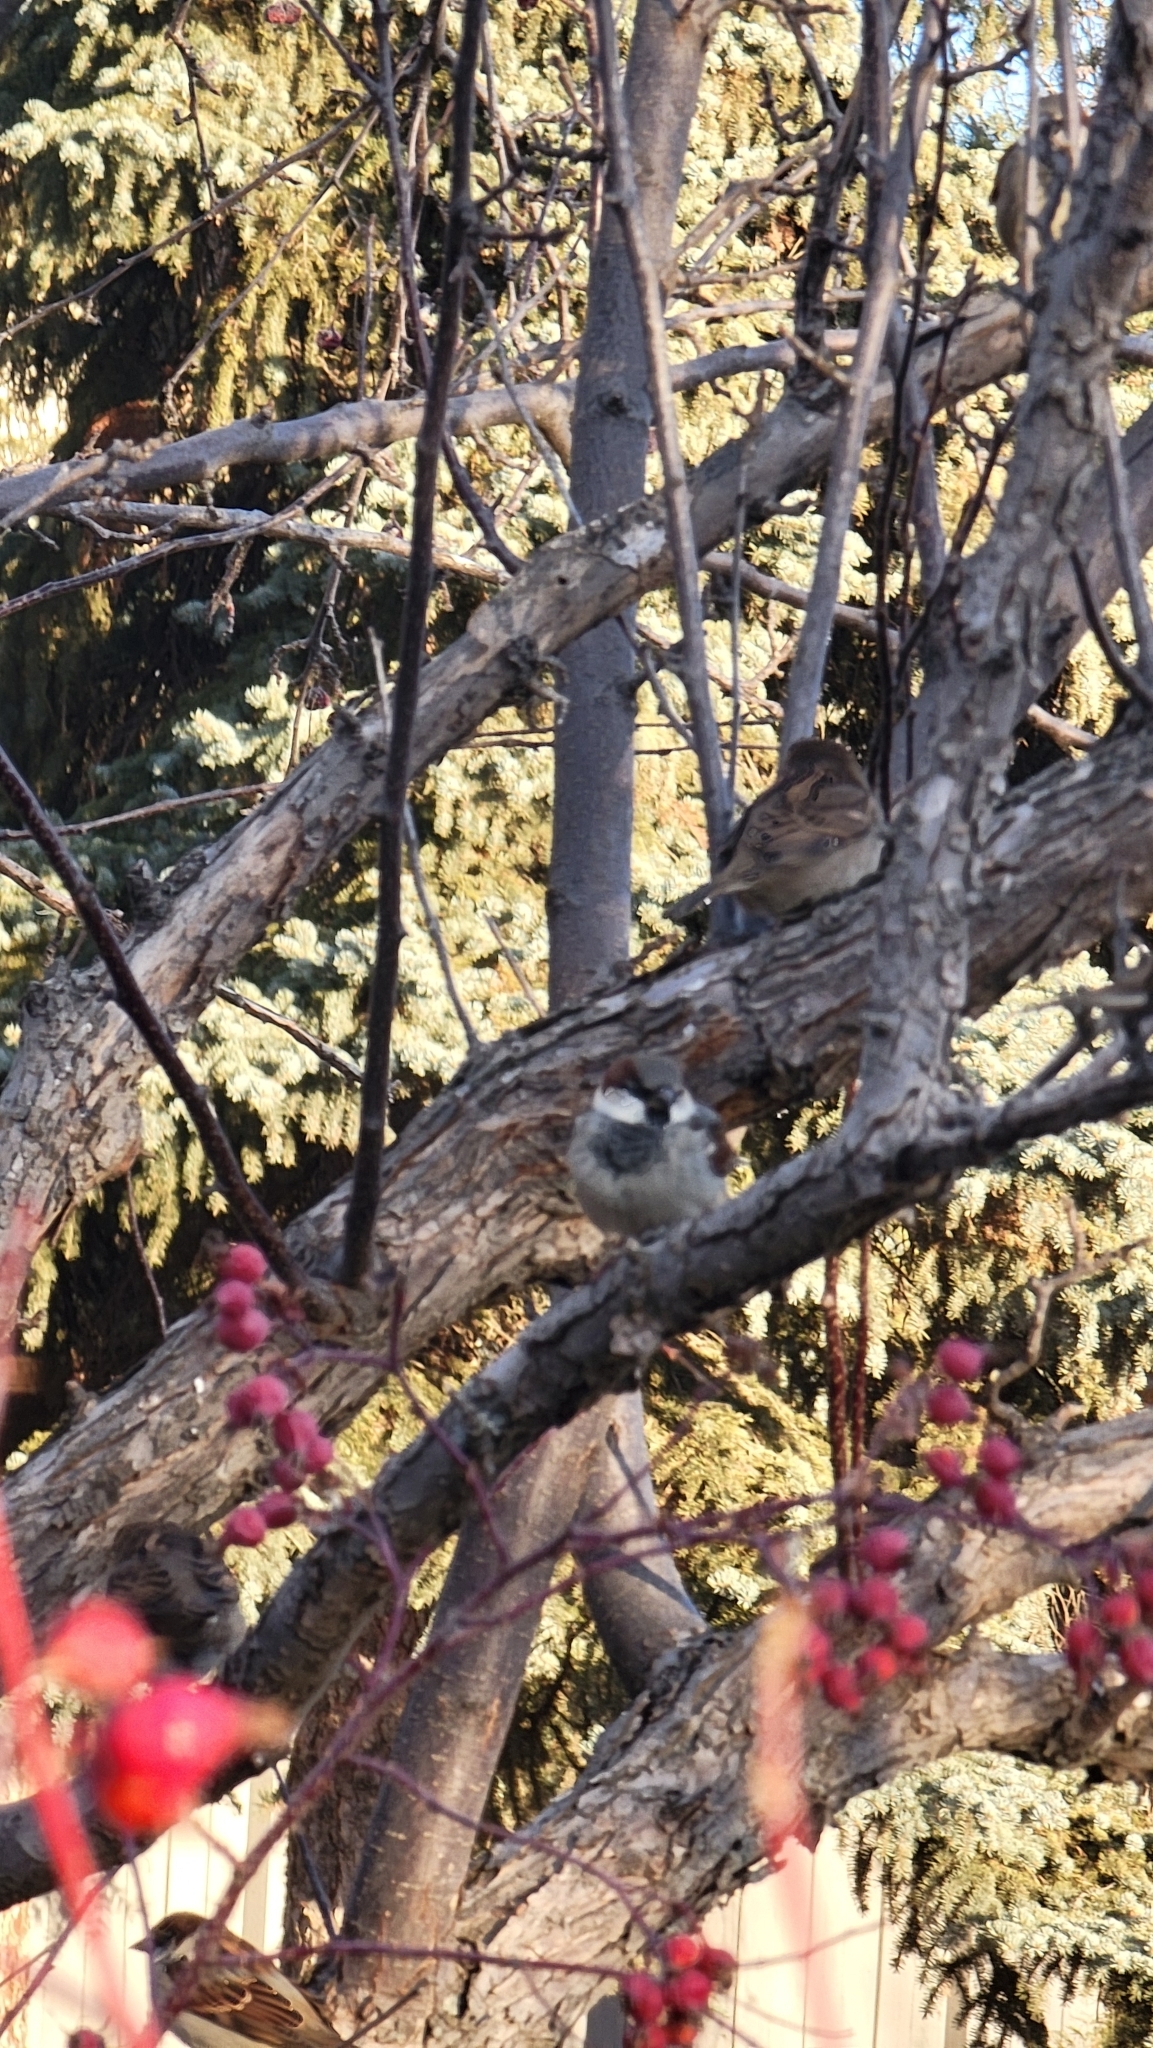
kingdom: Animalia
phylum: Chordata
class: Aves
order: Passeriformes
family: Passeridae
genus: Passer
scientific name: Passer domesticus
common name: House sparrow
